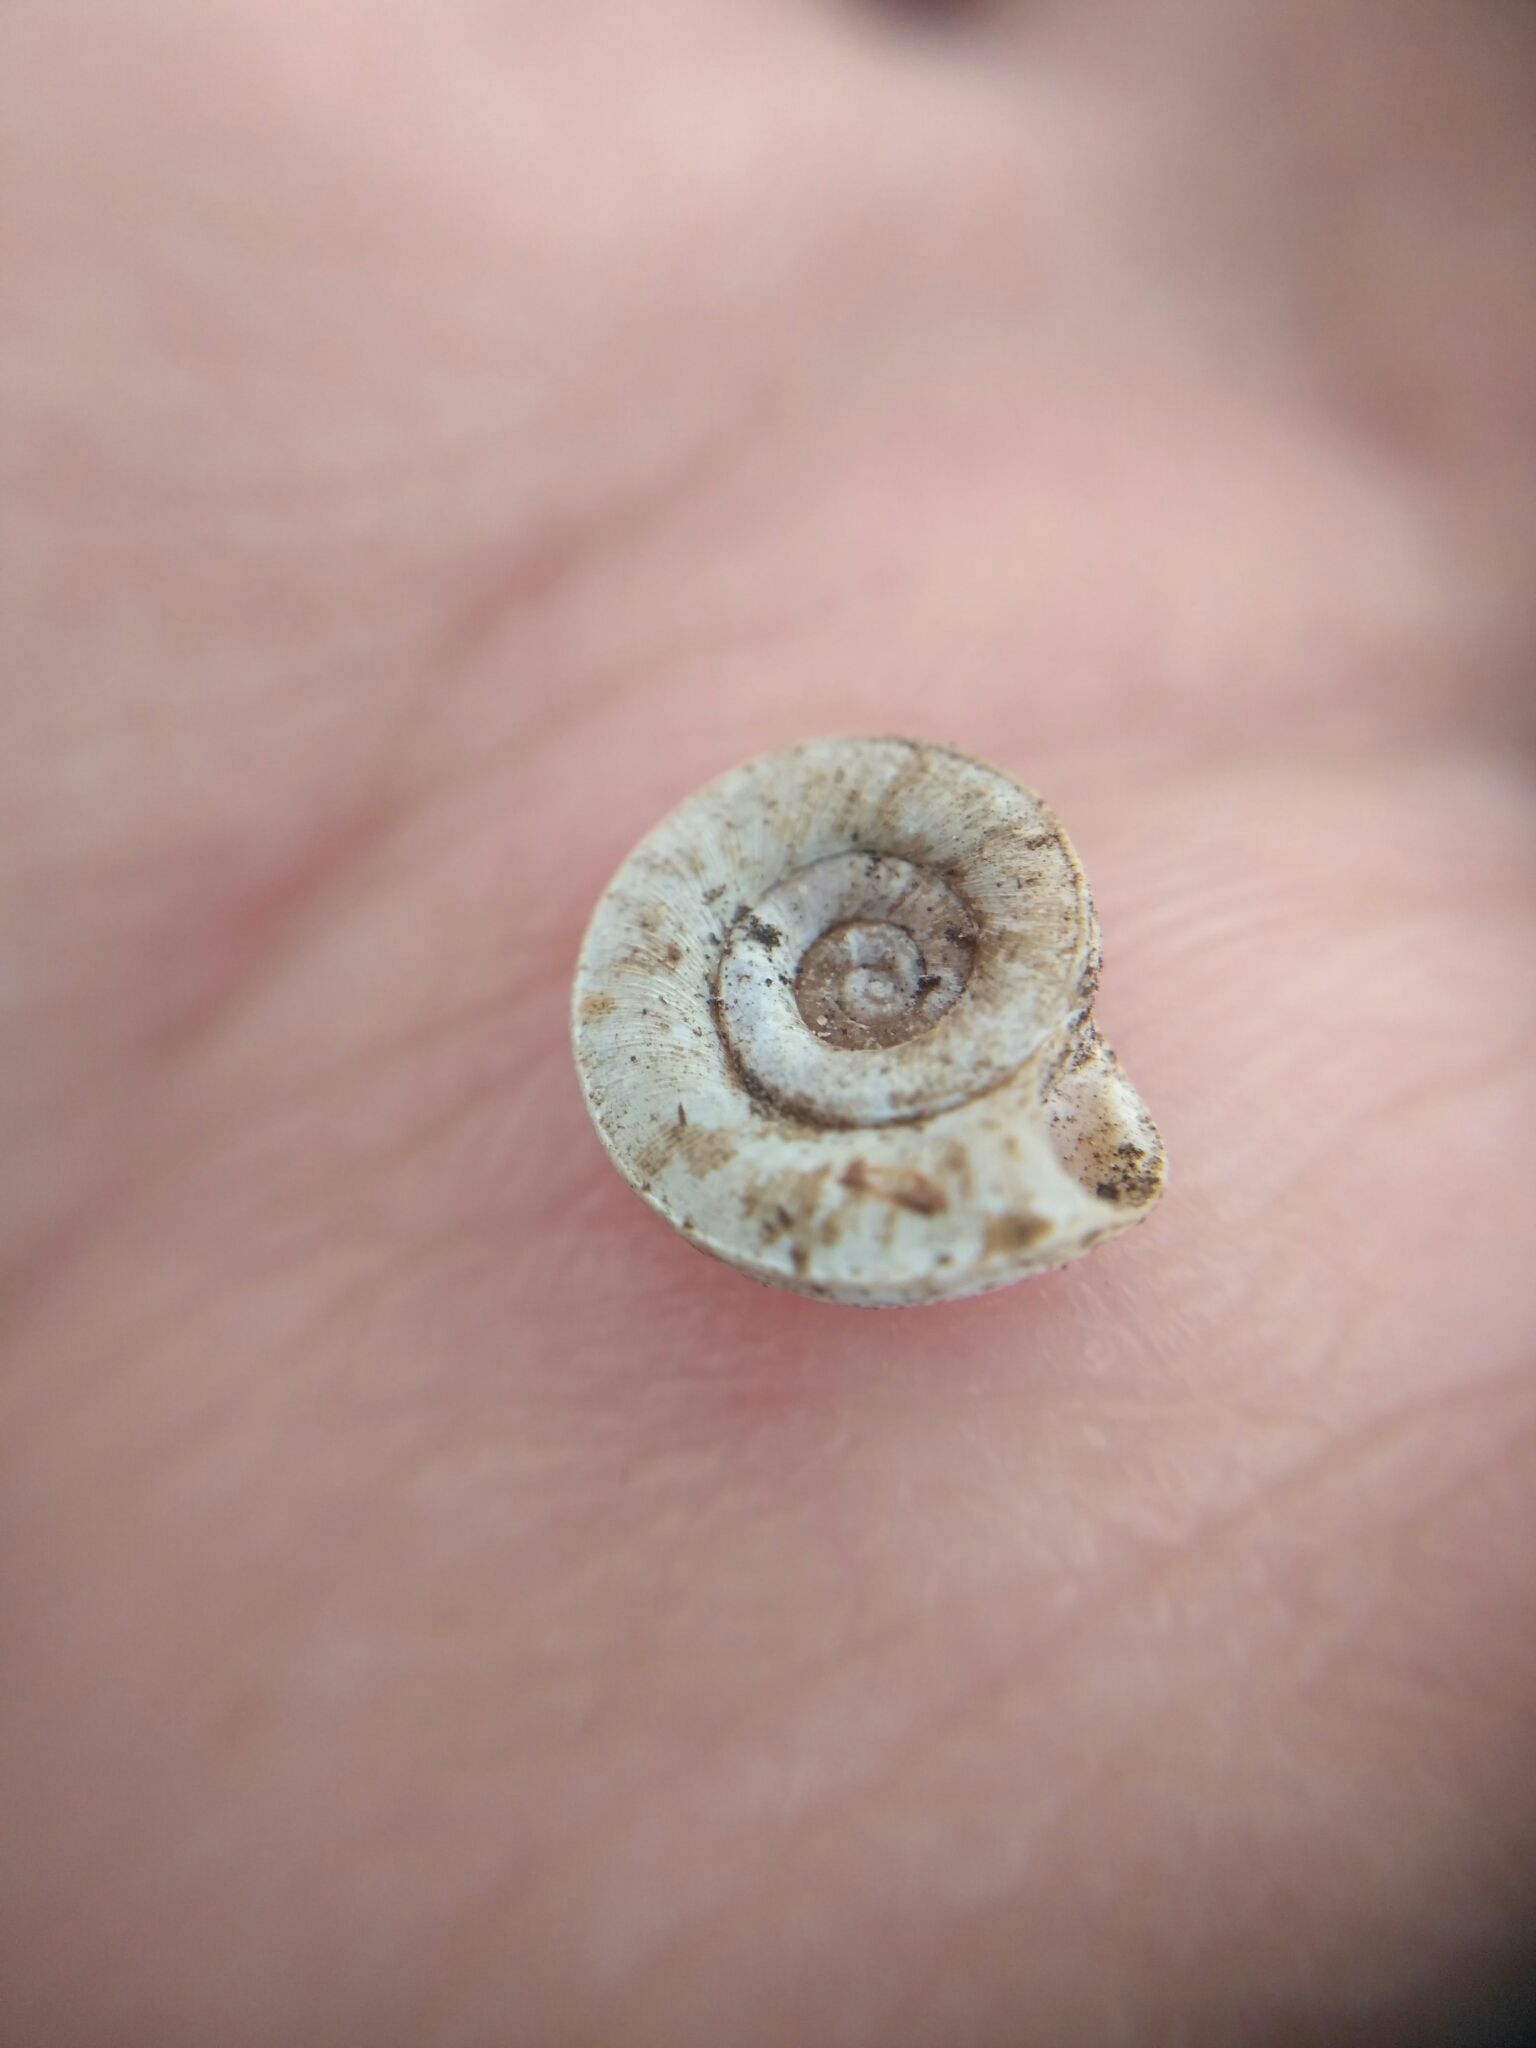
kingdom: Animalia
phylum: Mollusca
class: Gastropoda
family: Planorbidae
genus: Planorbis
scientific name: Planorbis planorbis
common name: Margined ramshorn
